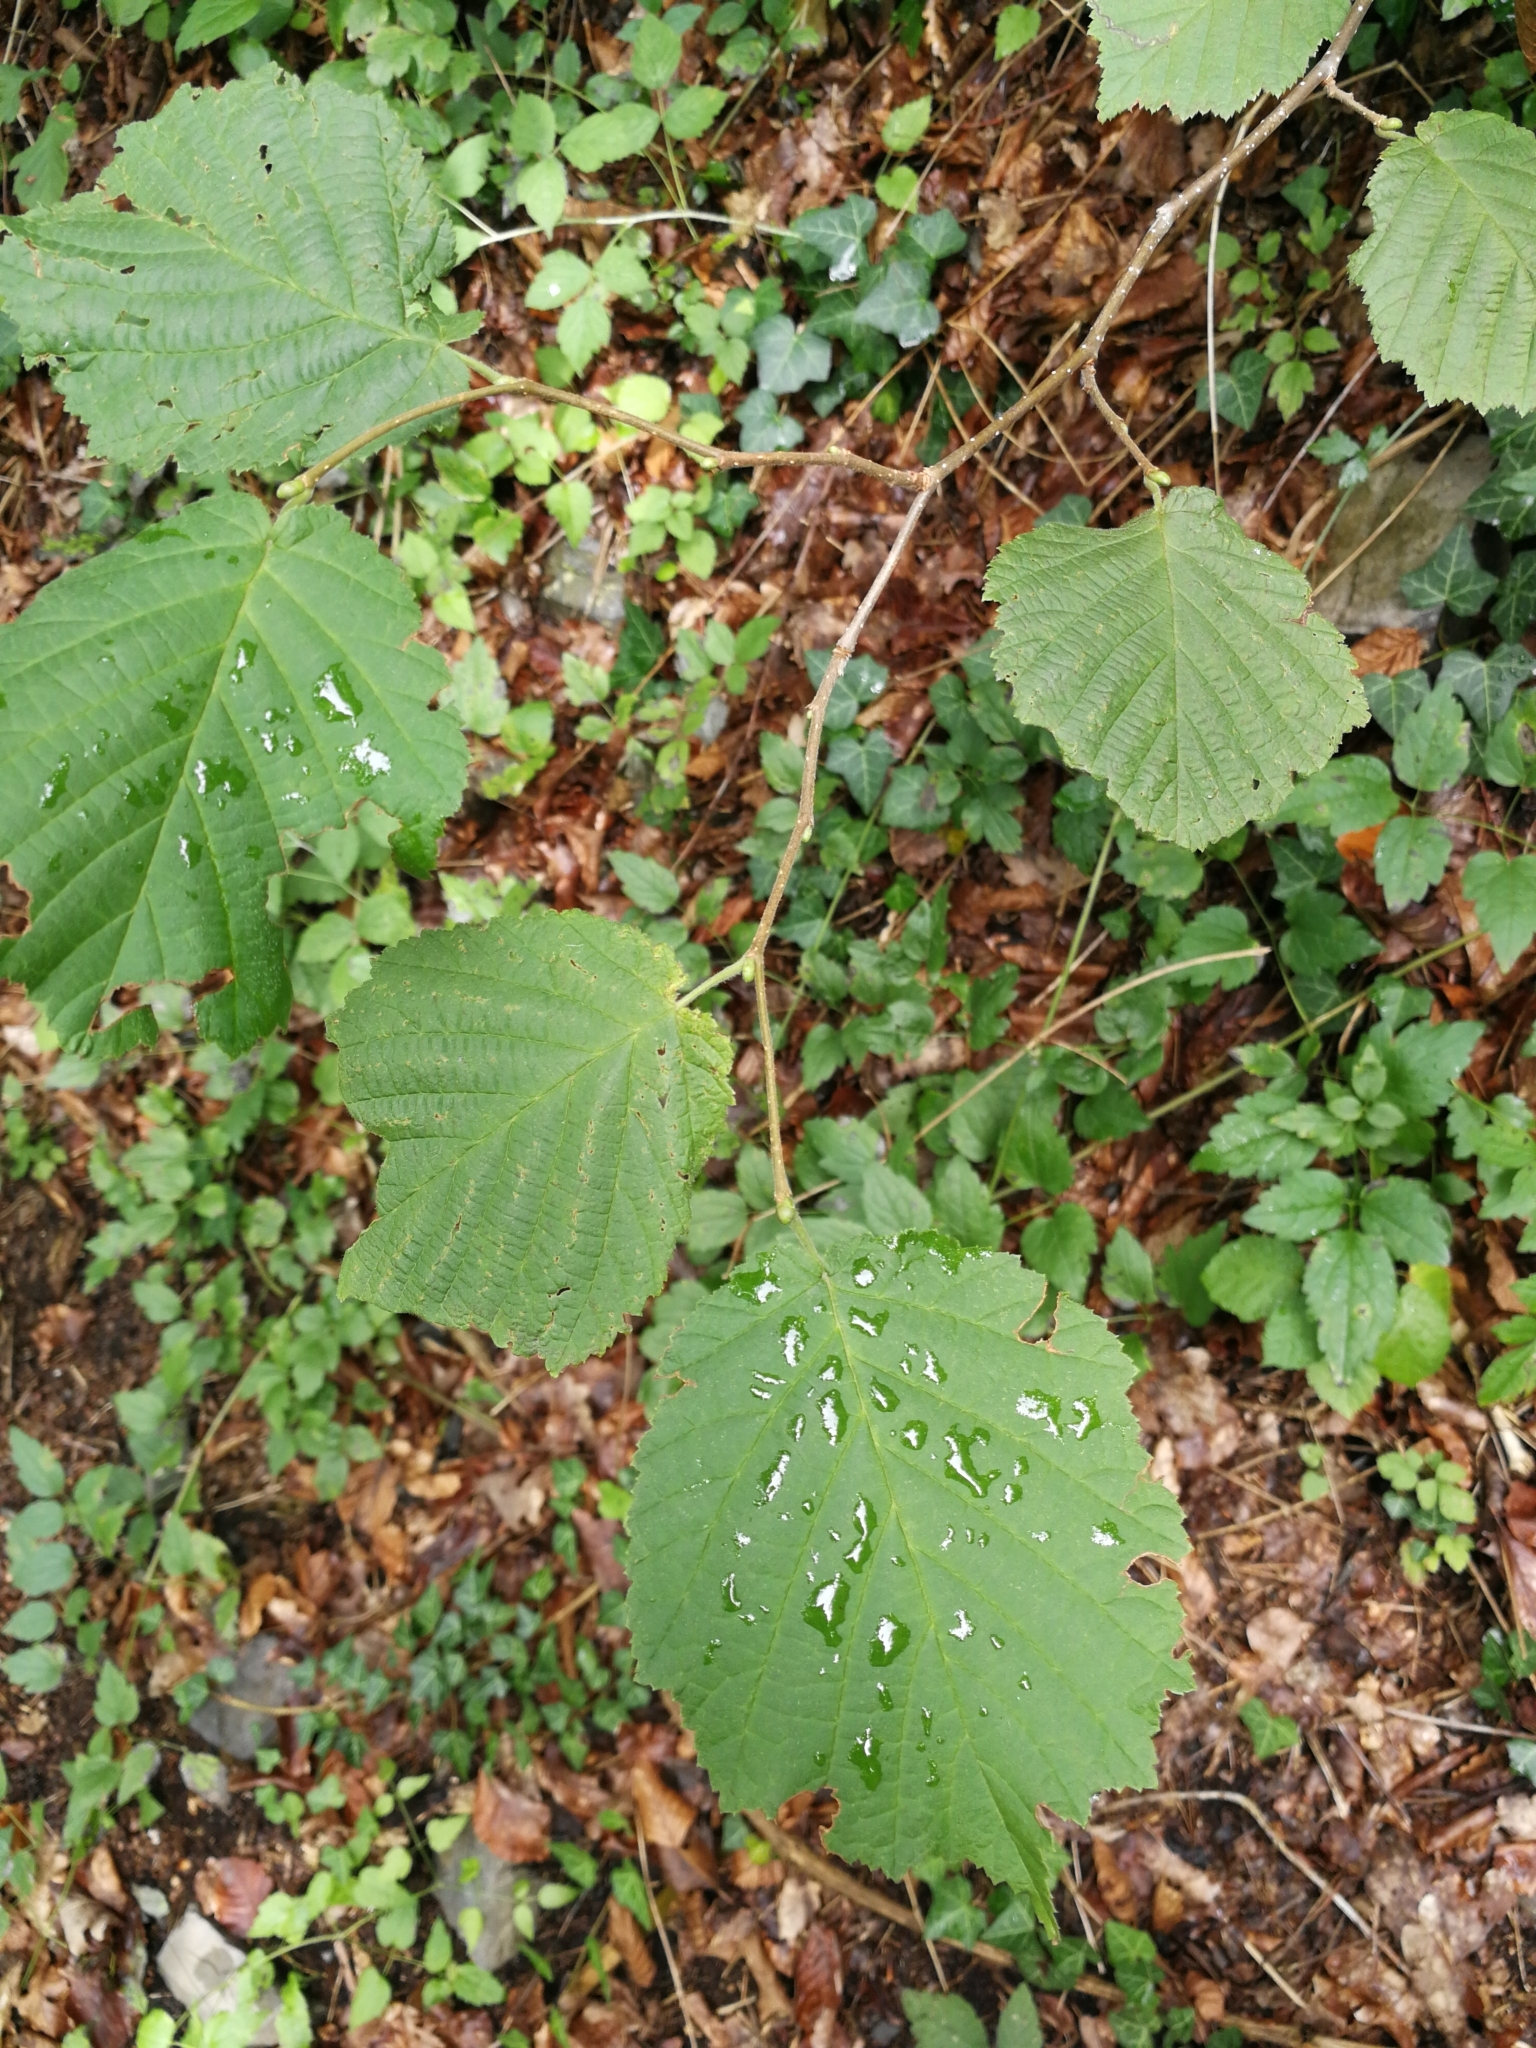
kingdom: Plantae
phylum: Tracheophyta
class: Magnoliopsida
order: Fagales
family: Betulaceae
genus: Corylus
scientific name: Corylus avellana
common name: European hazel
